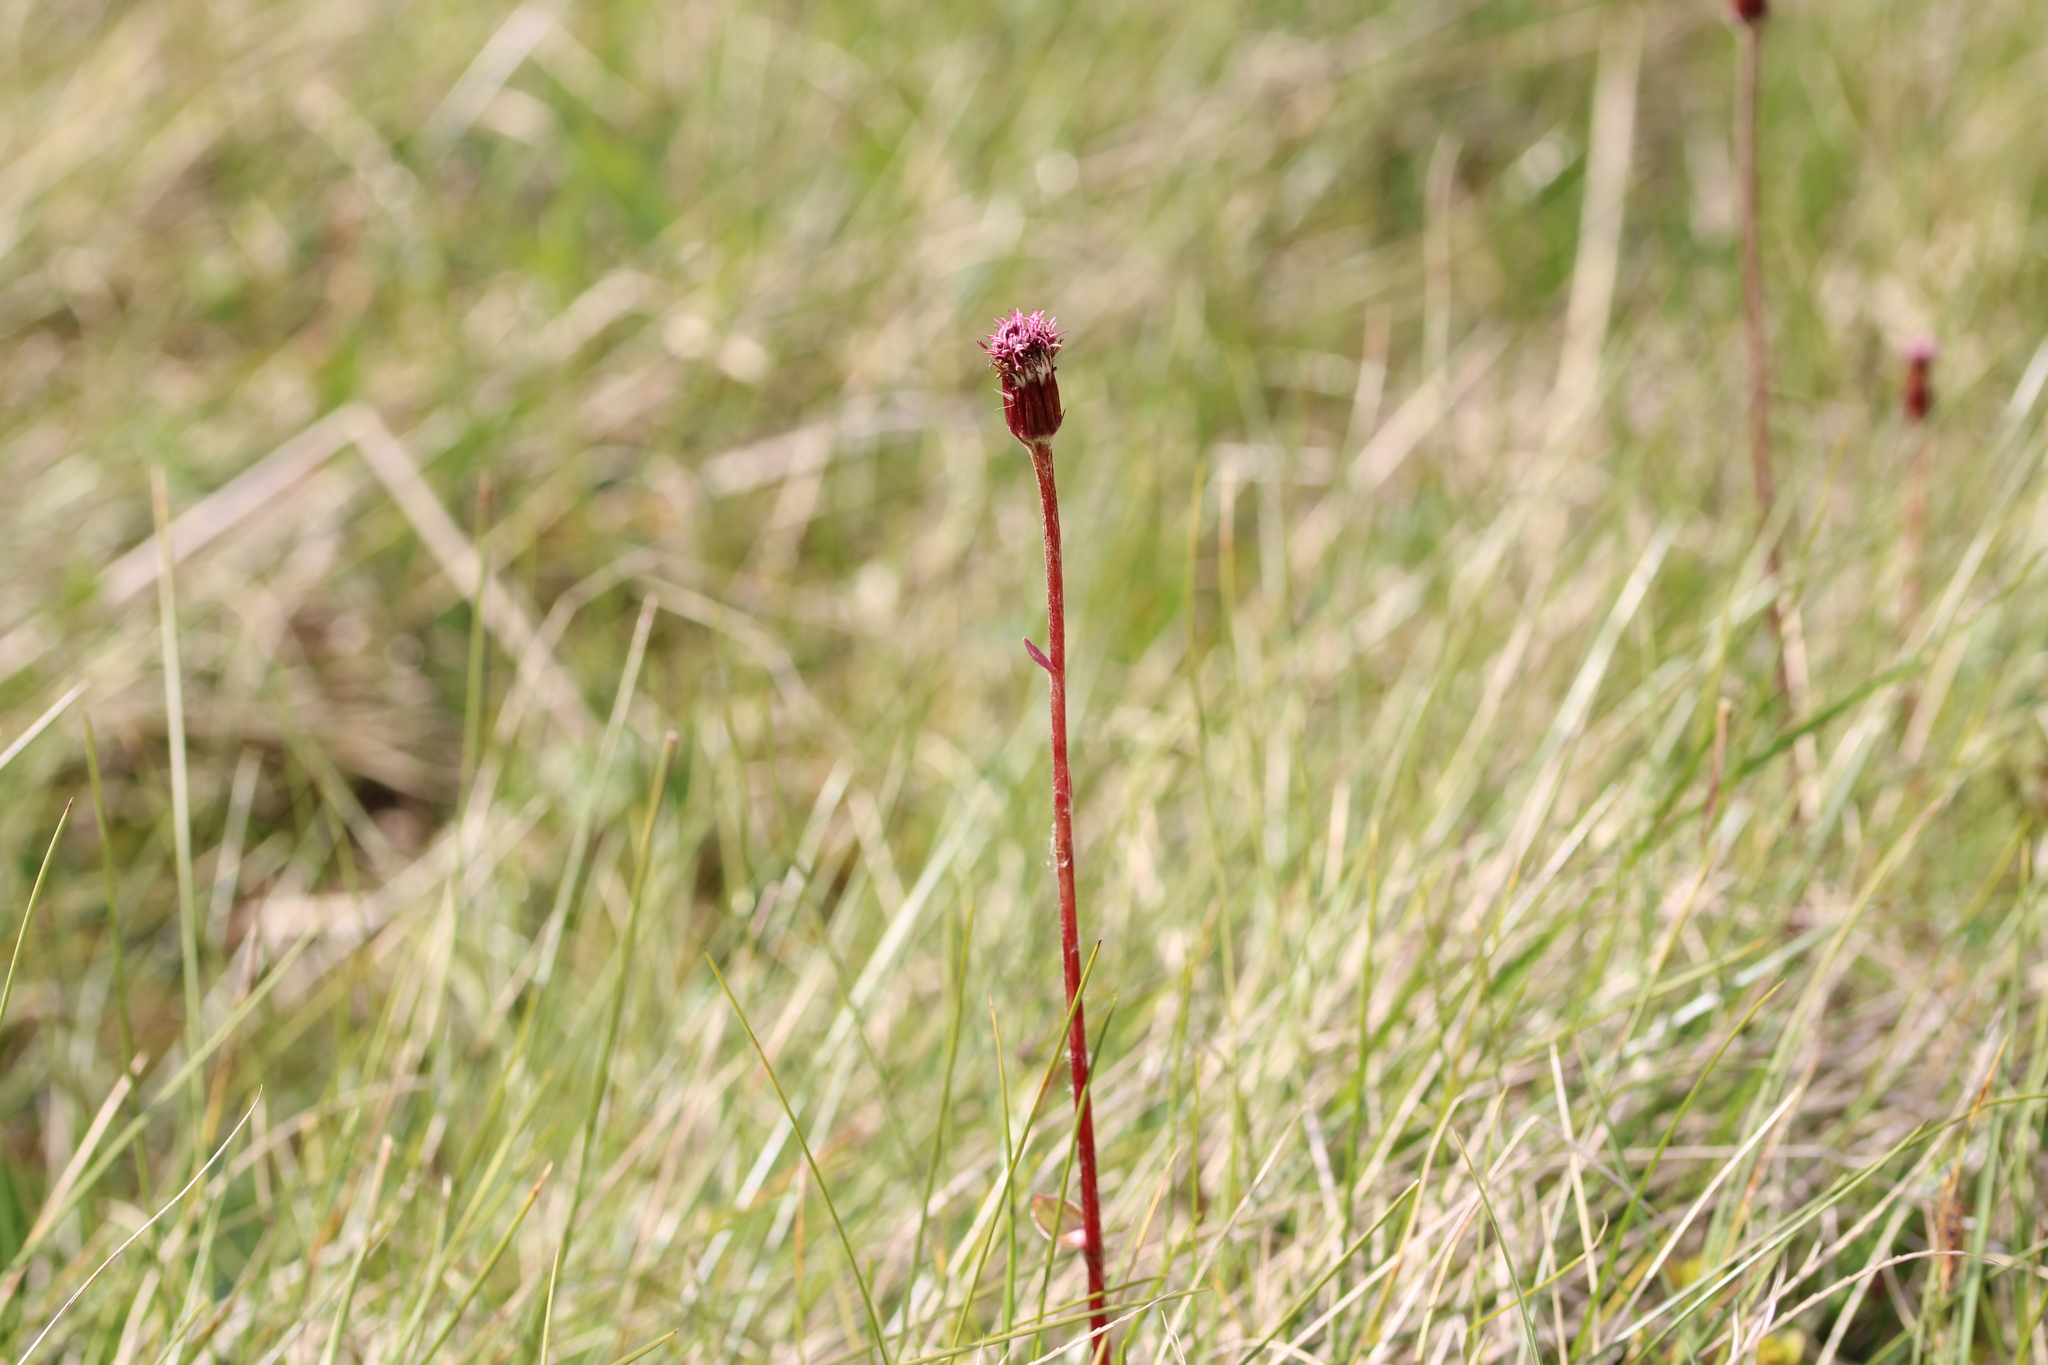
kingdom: Plantae
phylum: Tracheophyta
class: Magnoliopsida
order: Asterales
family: Asteraceae
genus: Homogyne
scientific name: Homogyne alpina
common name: Purple colt's-foot
